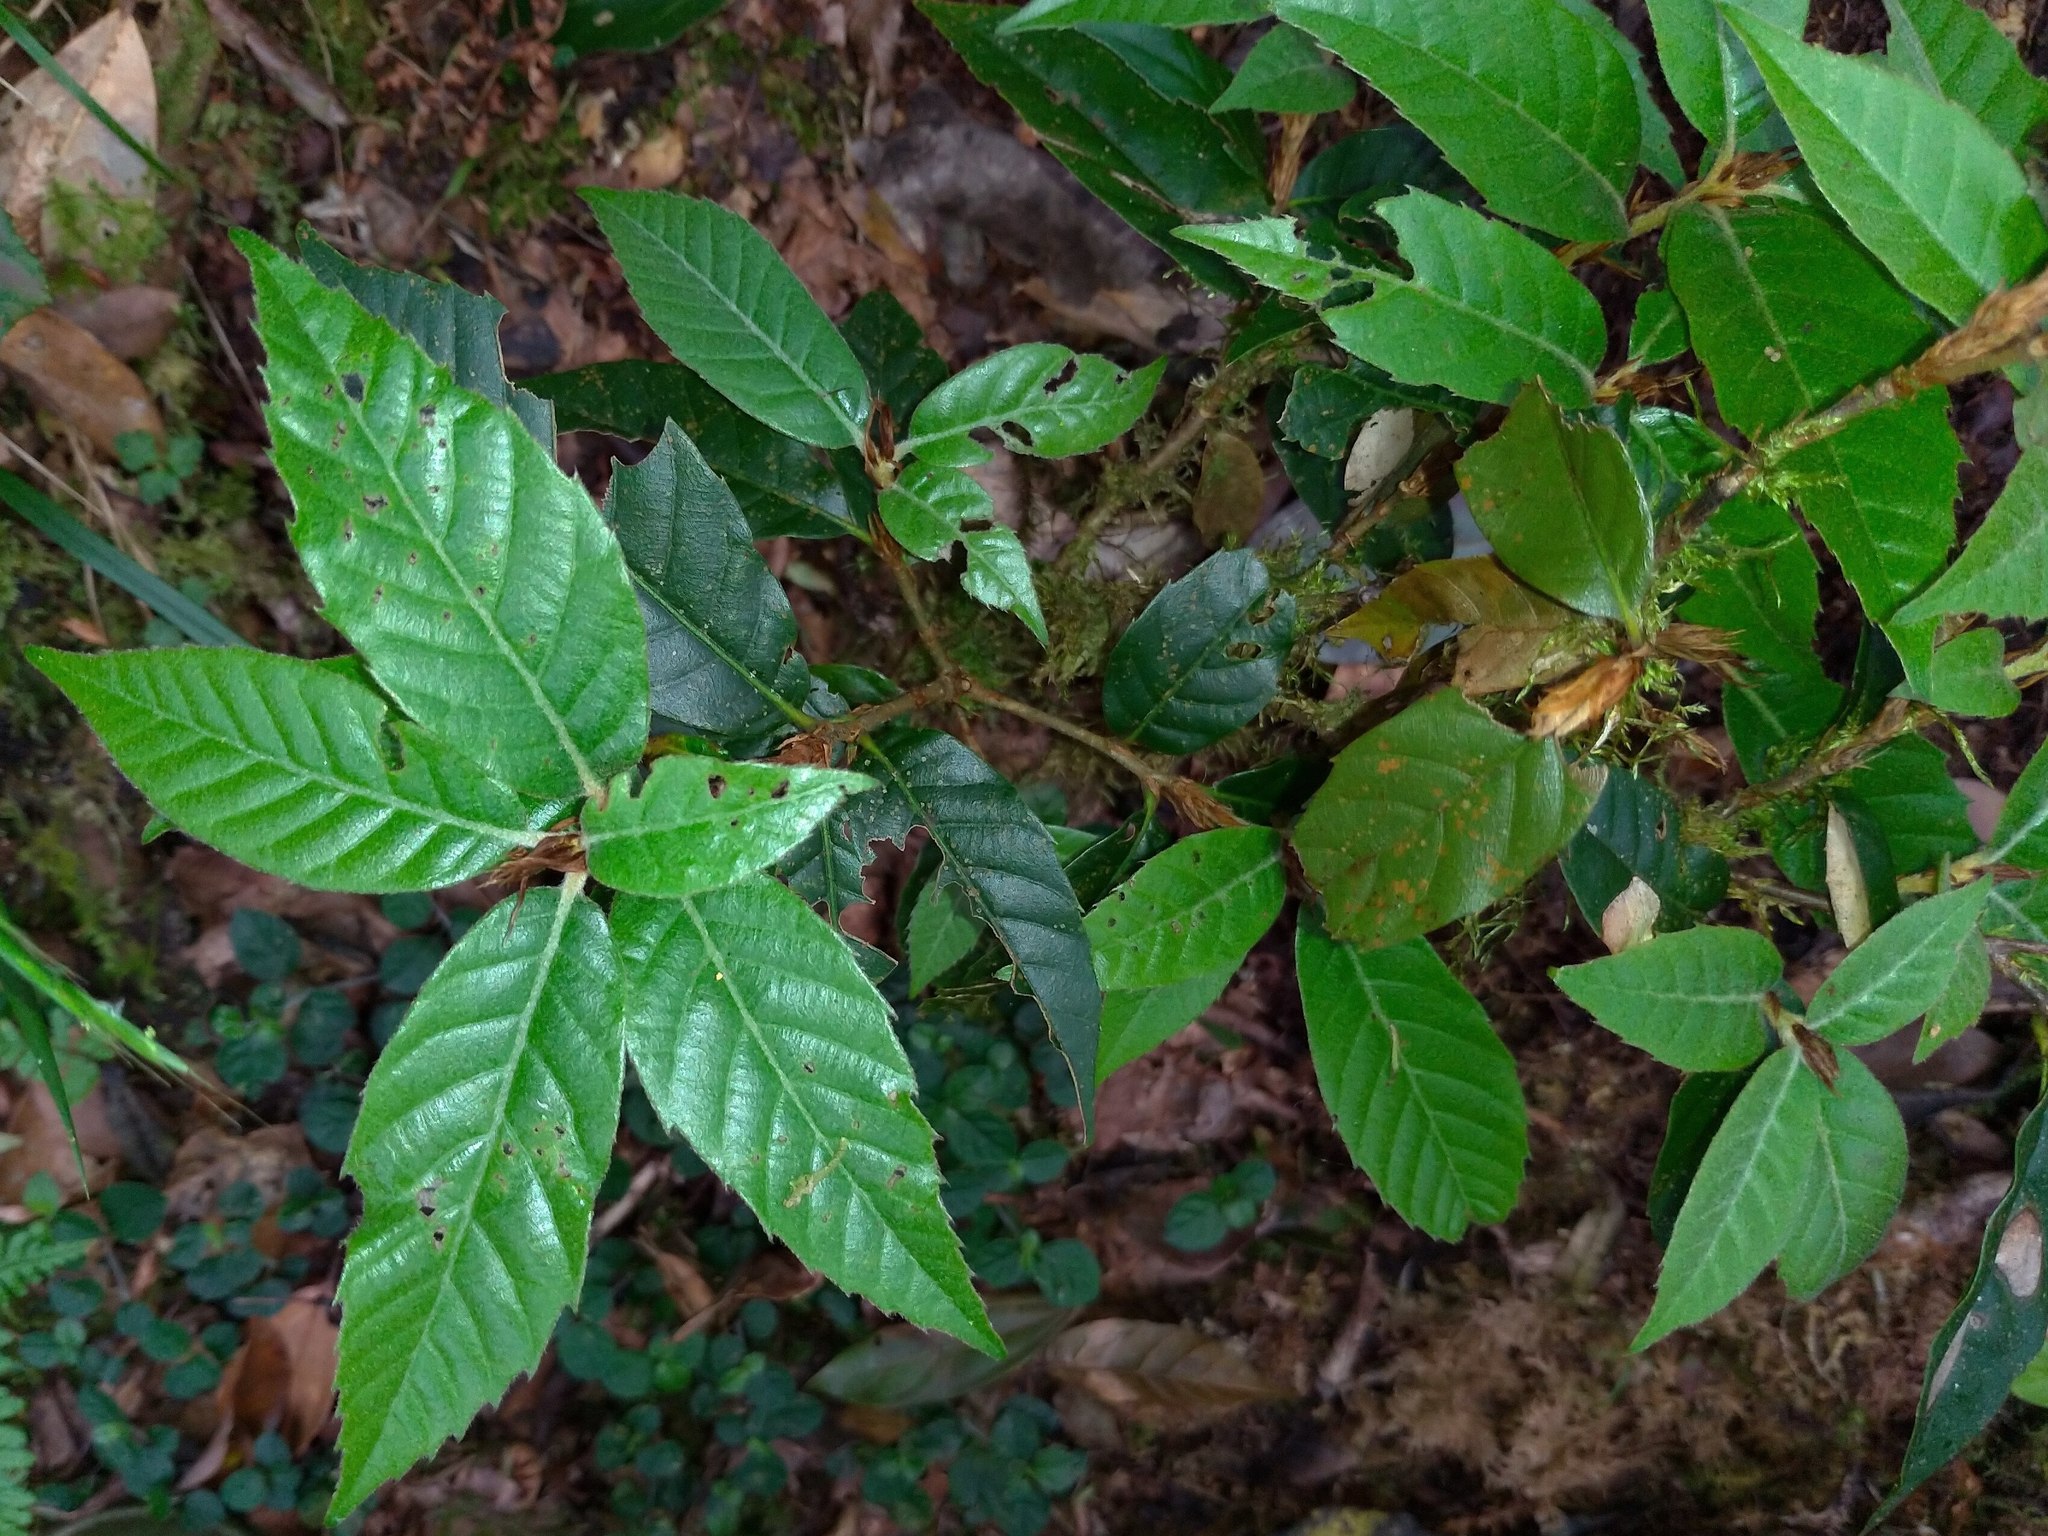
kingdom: Plantae
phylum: Tracheophyta
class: Magnoliopsida
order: Fagales
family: Fagaceae
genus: Quercus
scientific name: Quercus tatakaensis
